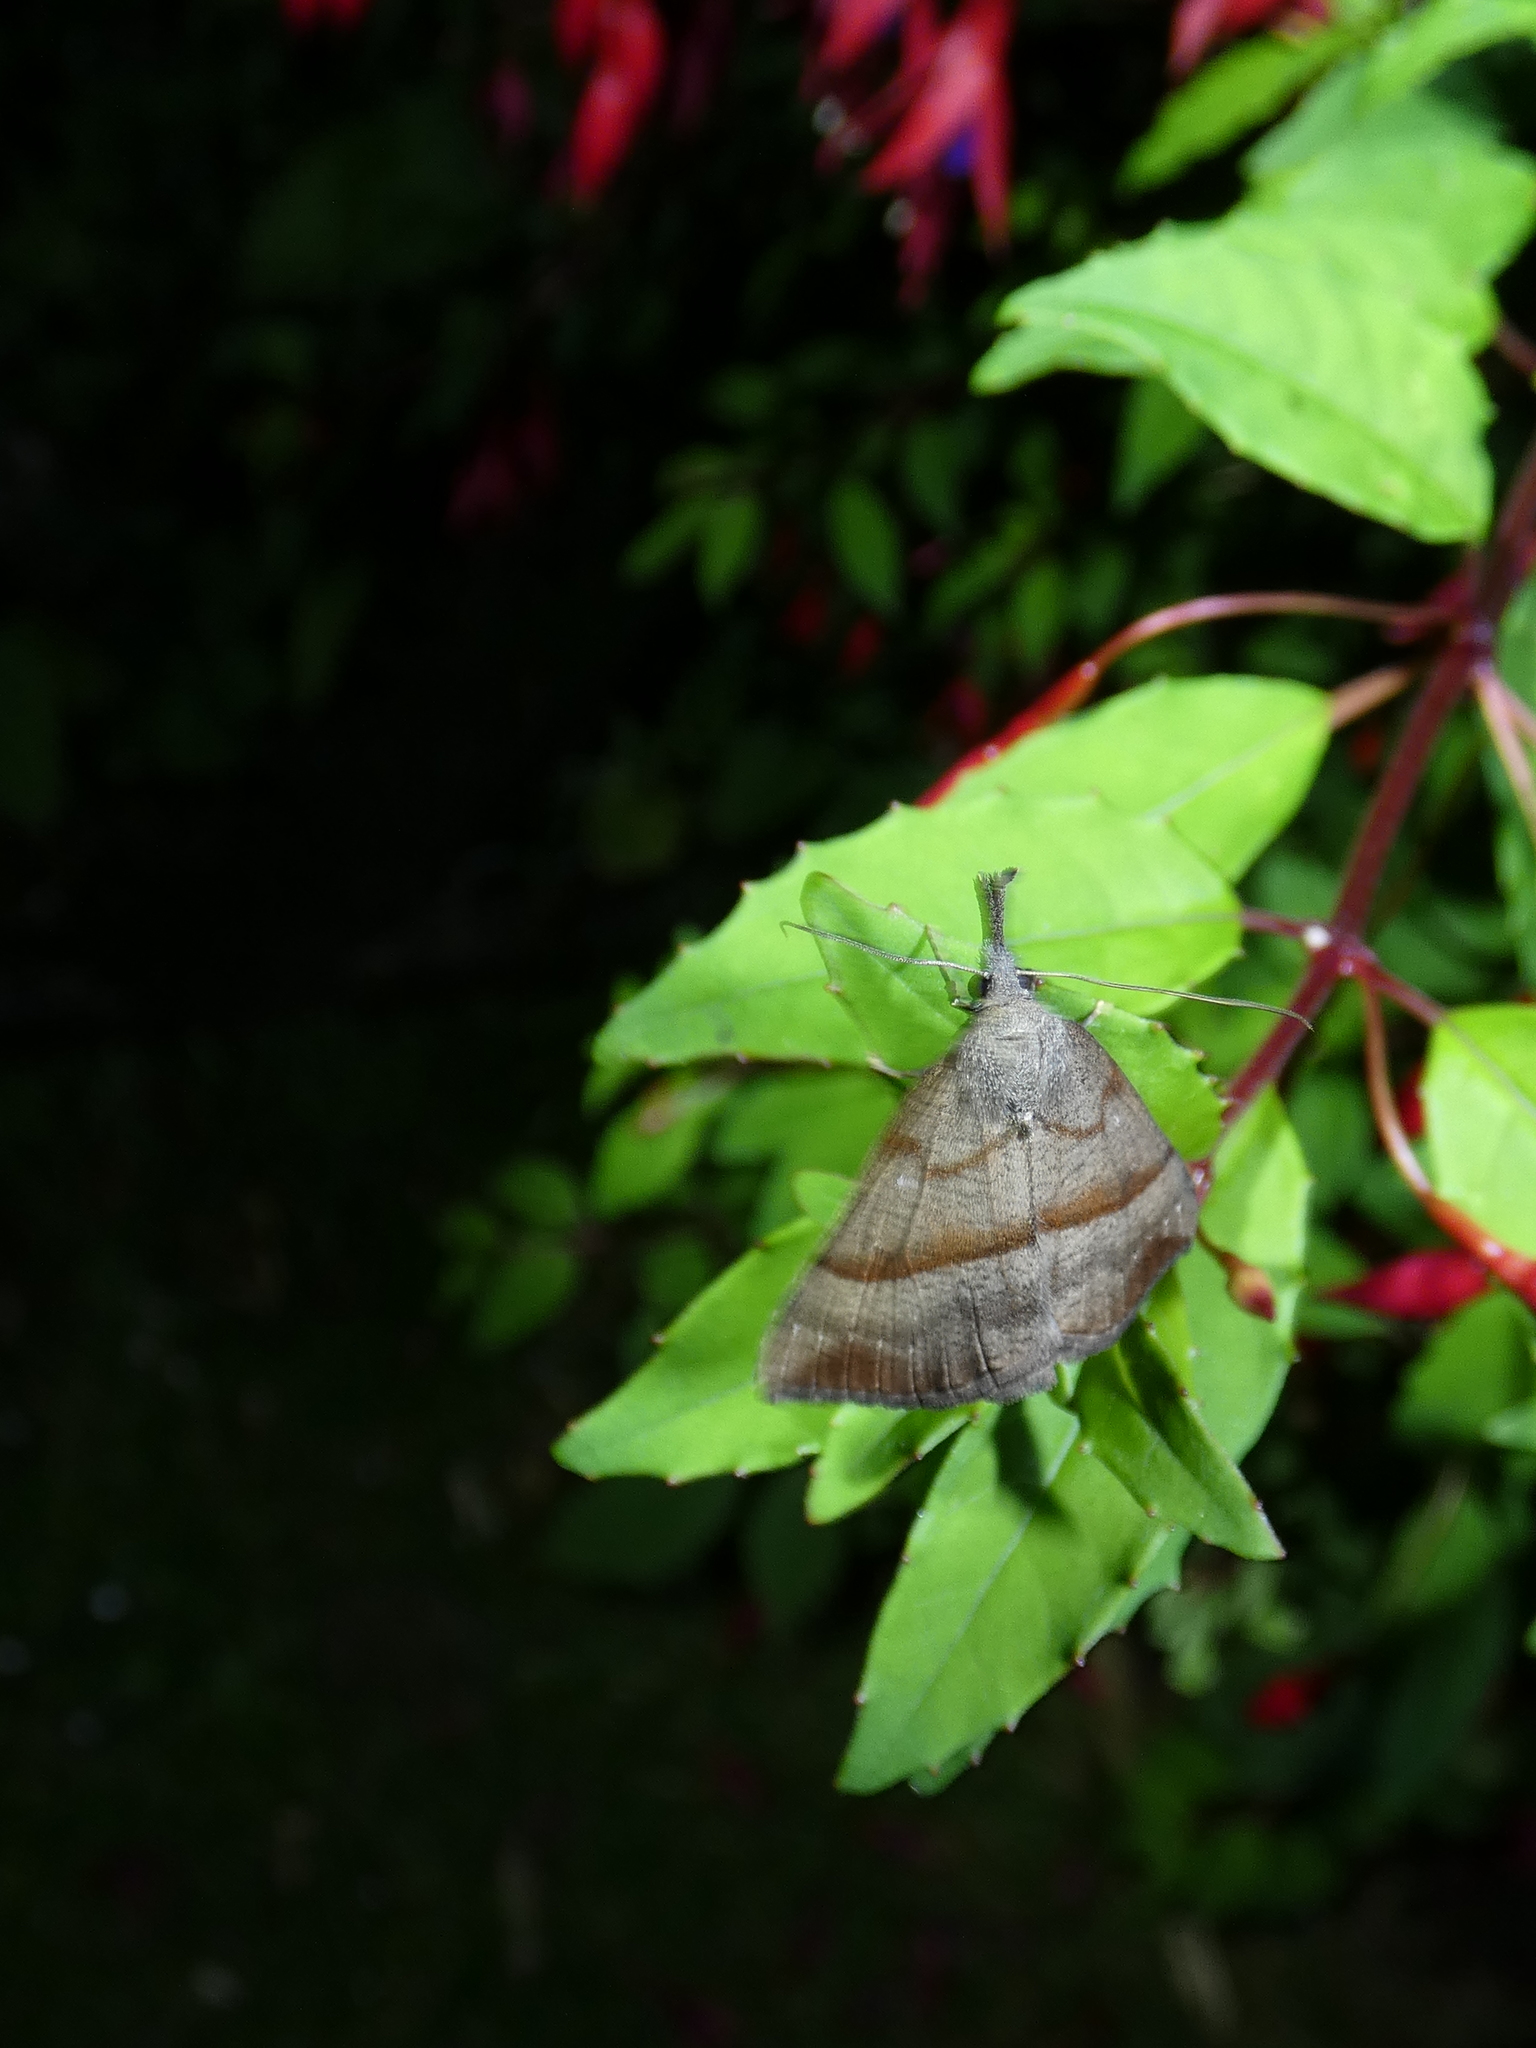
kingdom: Animalia
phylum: Arthropoda
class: Insecta
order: Lepidoptera
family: Erebidae
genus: Hypena
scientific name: Hypena proboscidalis
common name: Snout
